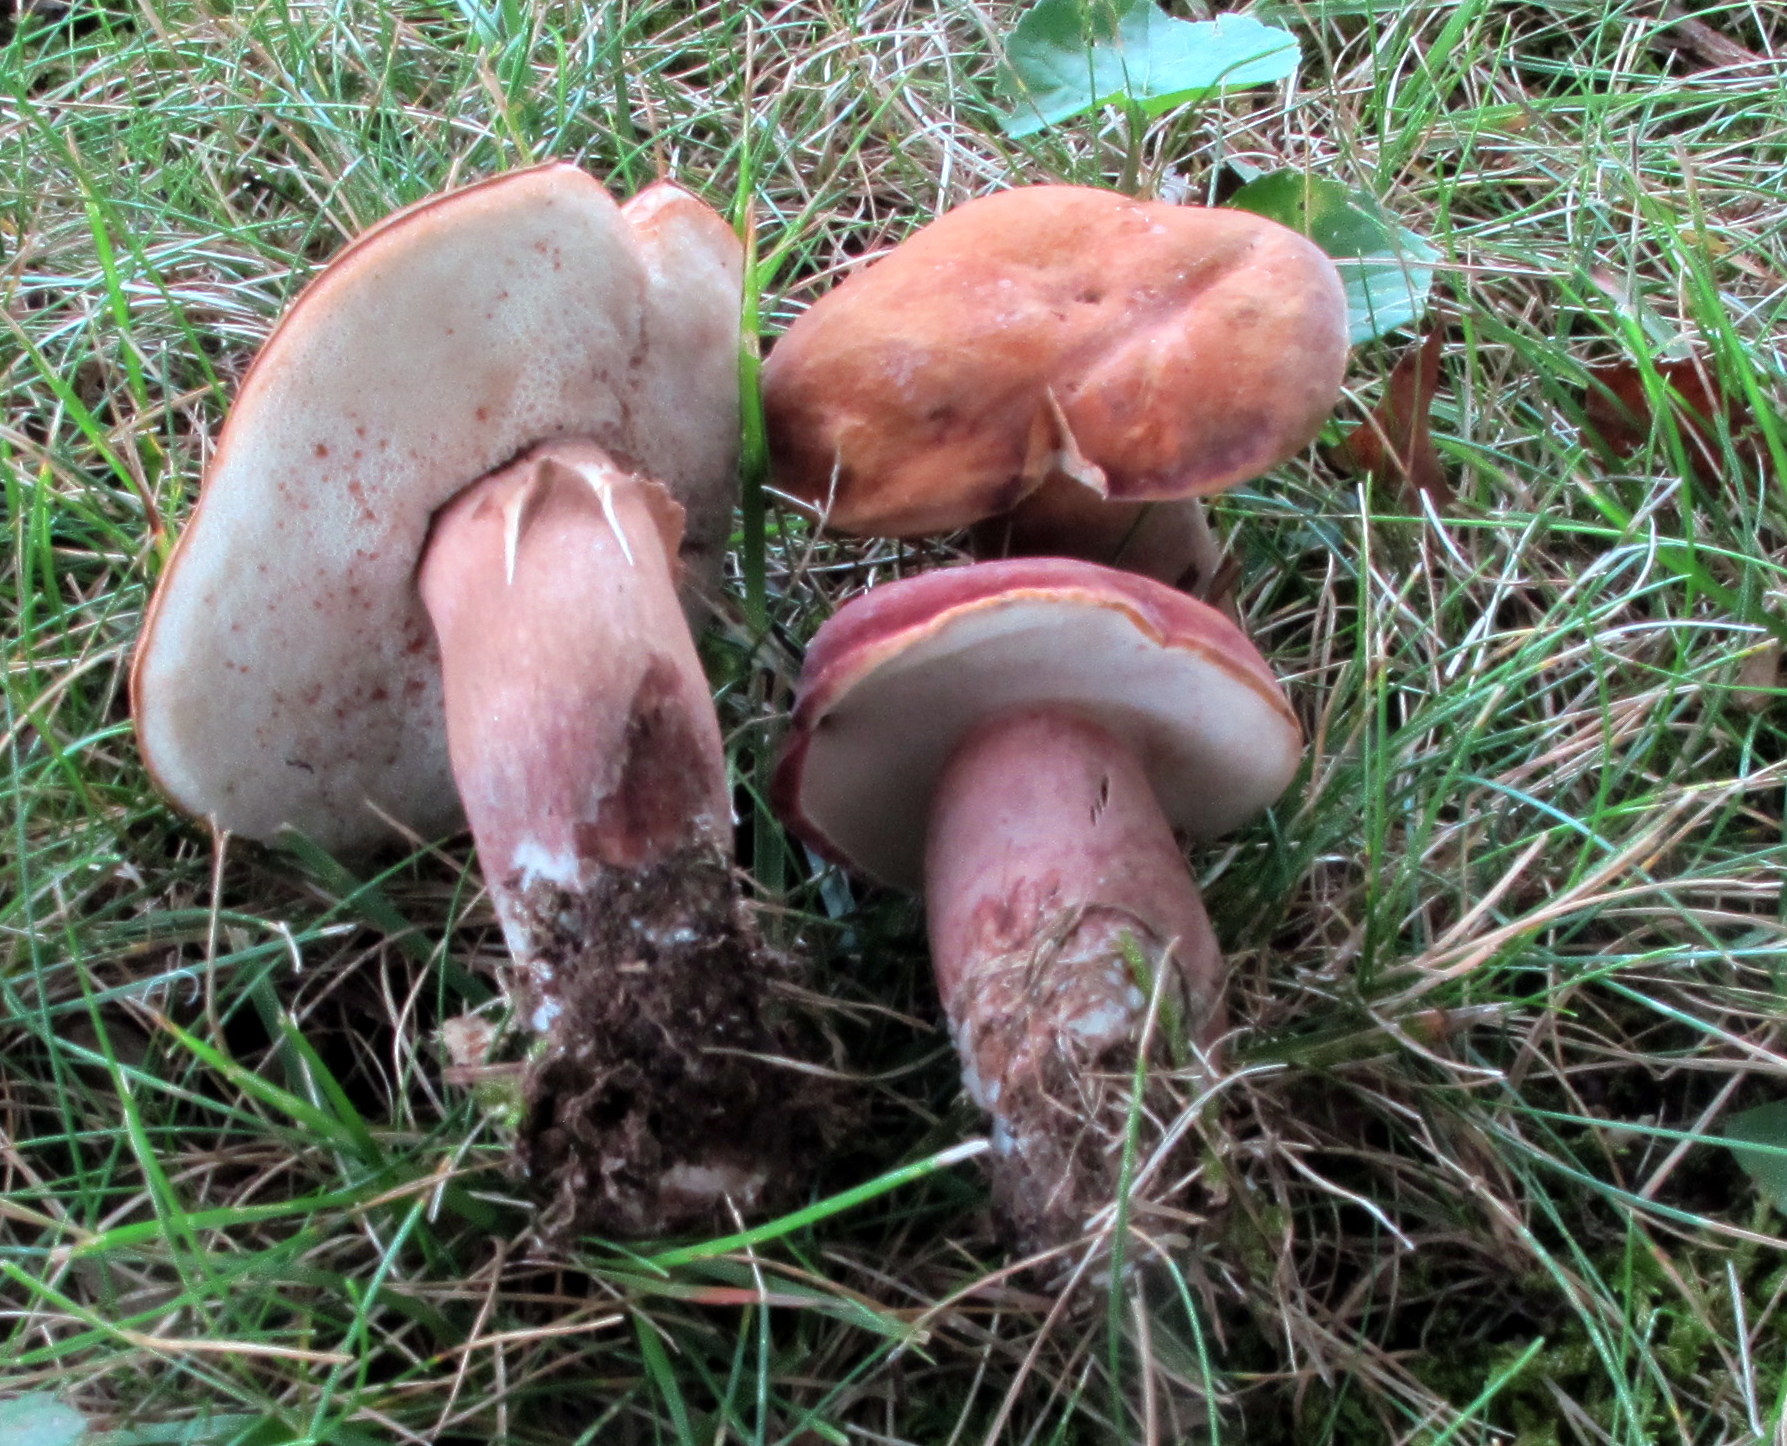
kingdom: Fungi
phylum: Basidiomycota
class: Agaricomycetes
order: Boletales
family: Boletaceae
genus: Tylopilus
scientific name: Tylopilus badiceps
